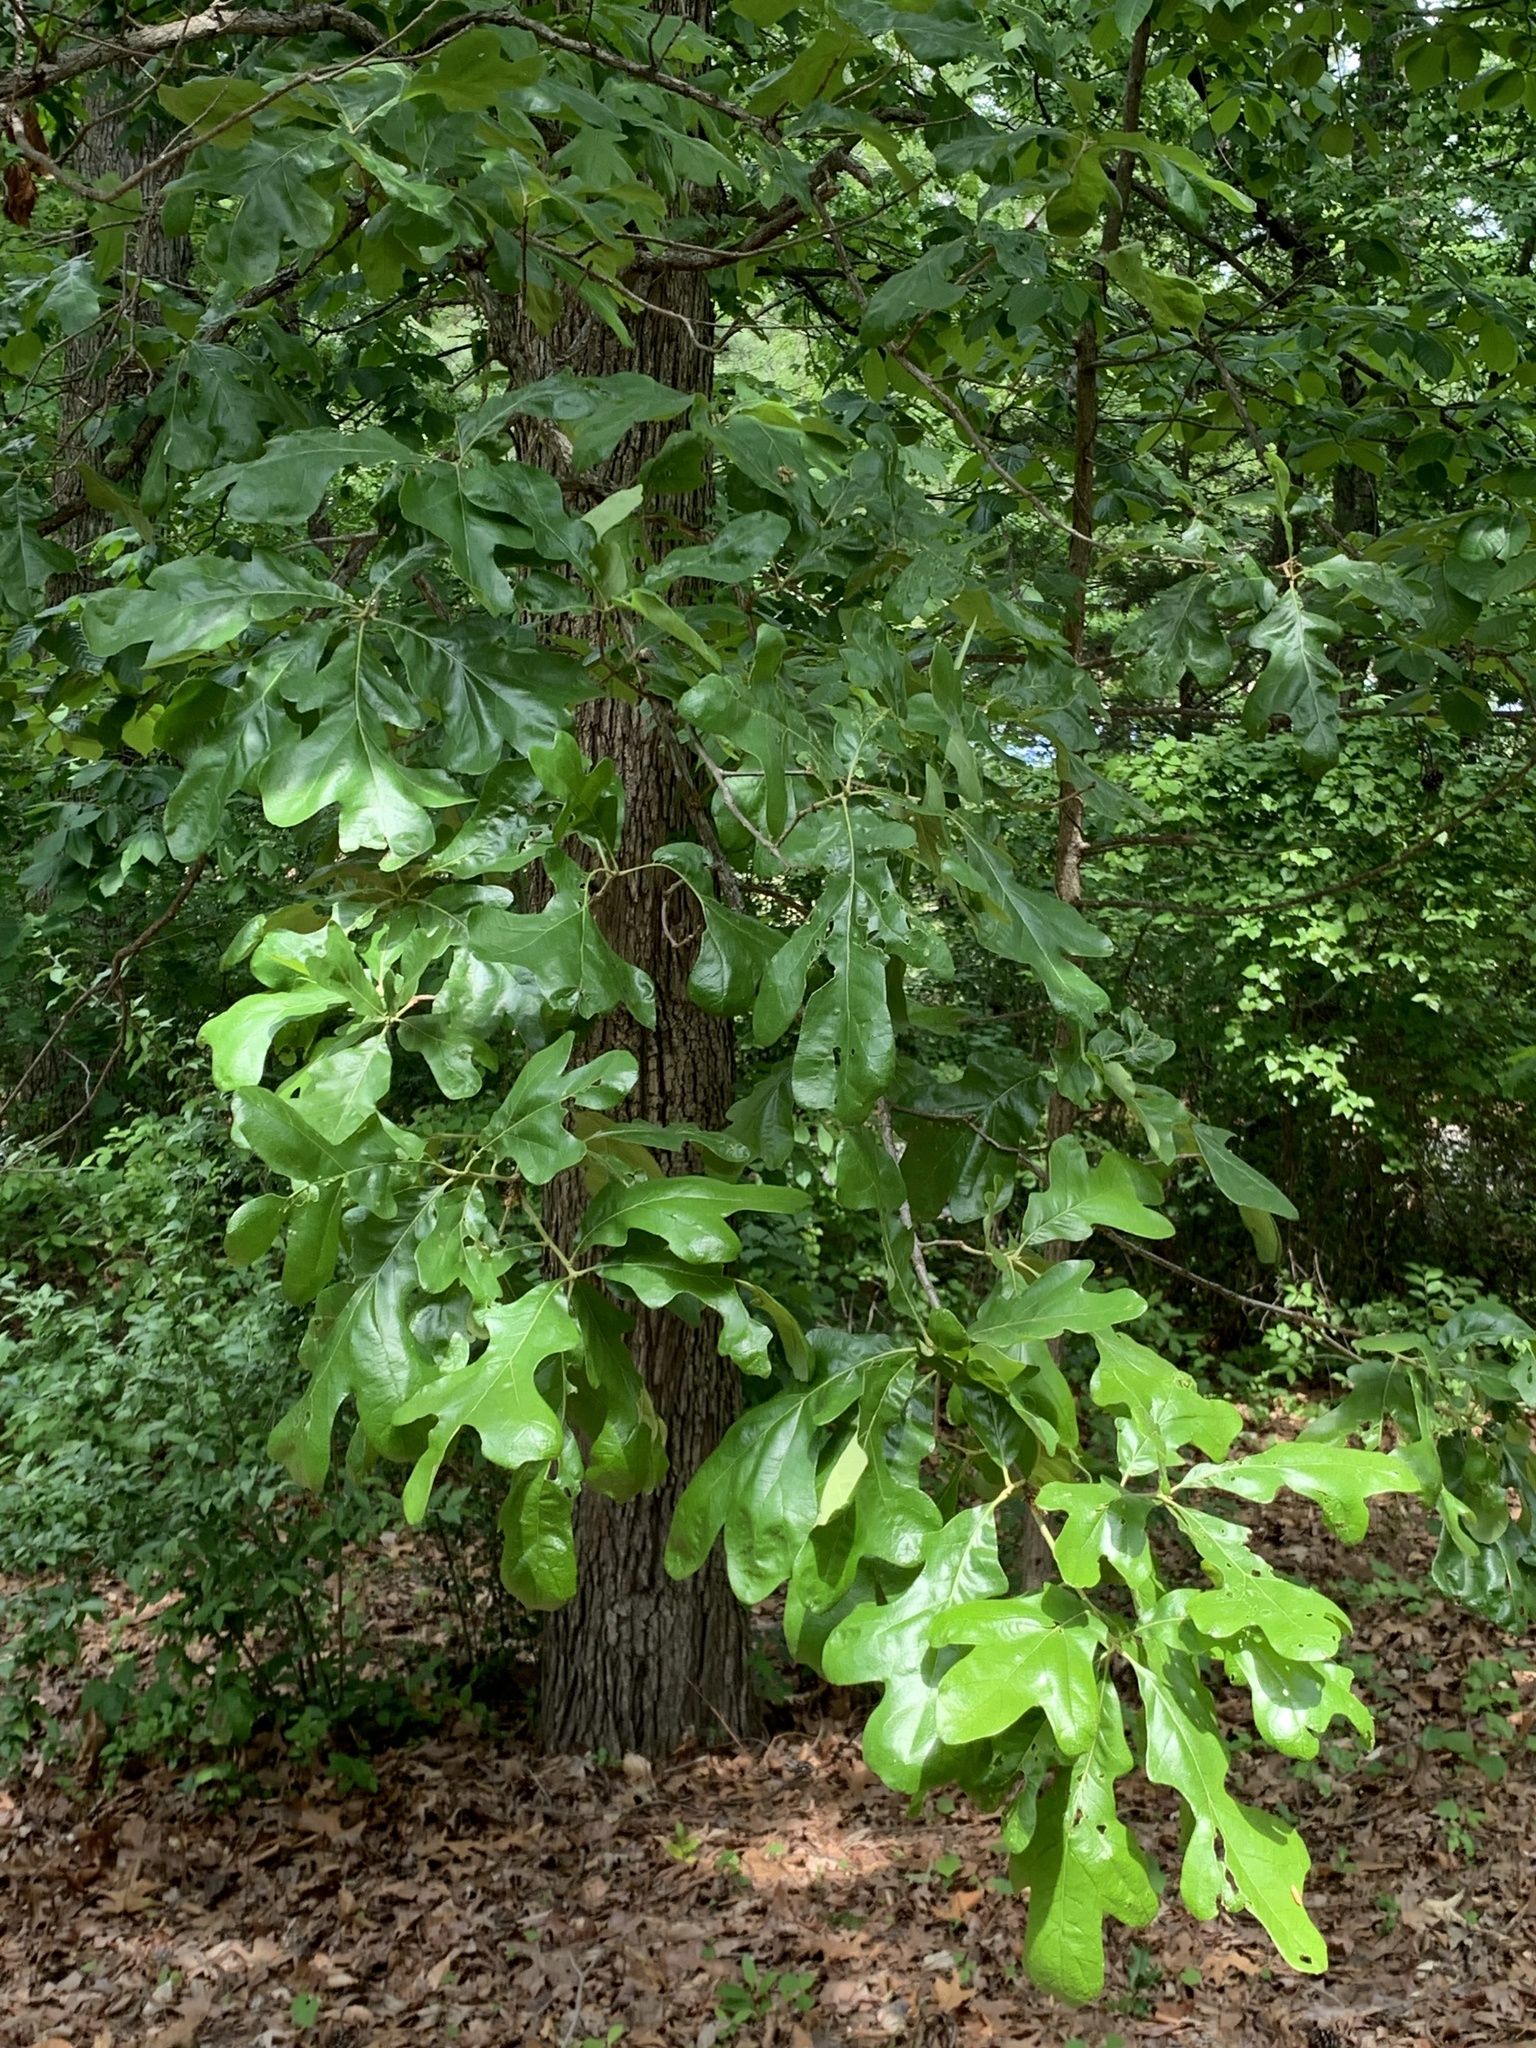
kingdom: Plantae
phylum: Tracheophyta
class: Magnoliopsida
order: Fagales
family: Fagaceae
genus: Quercus
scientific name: Quercus stellata
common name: Post oak
